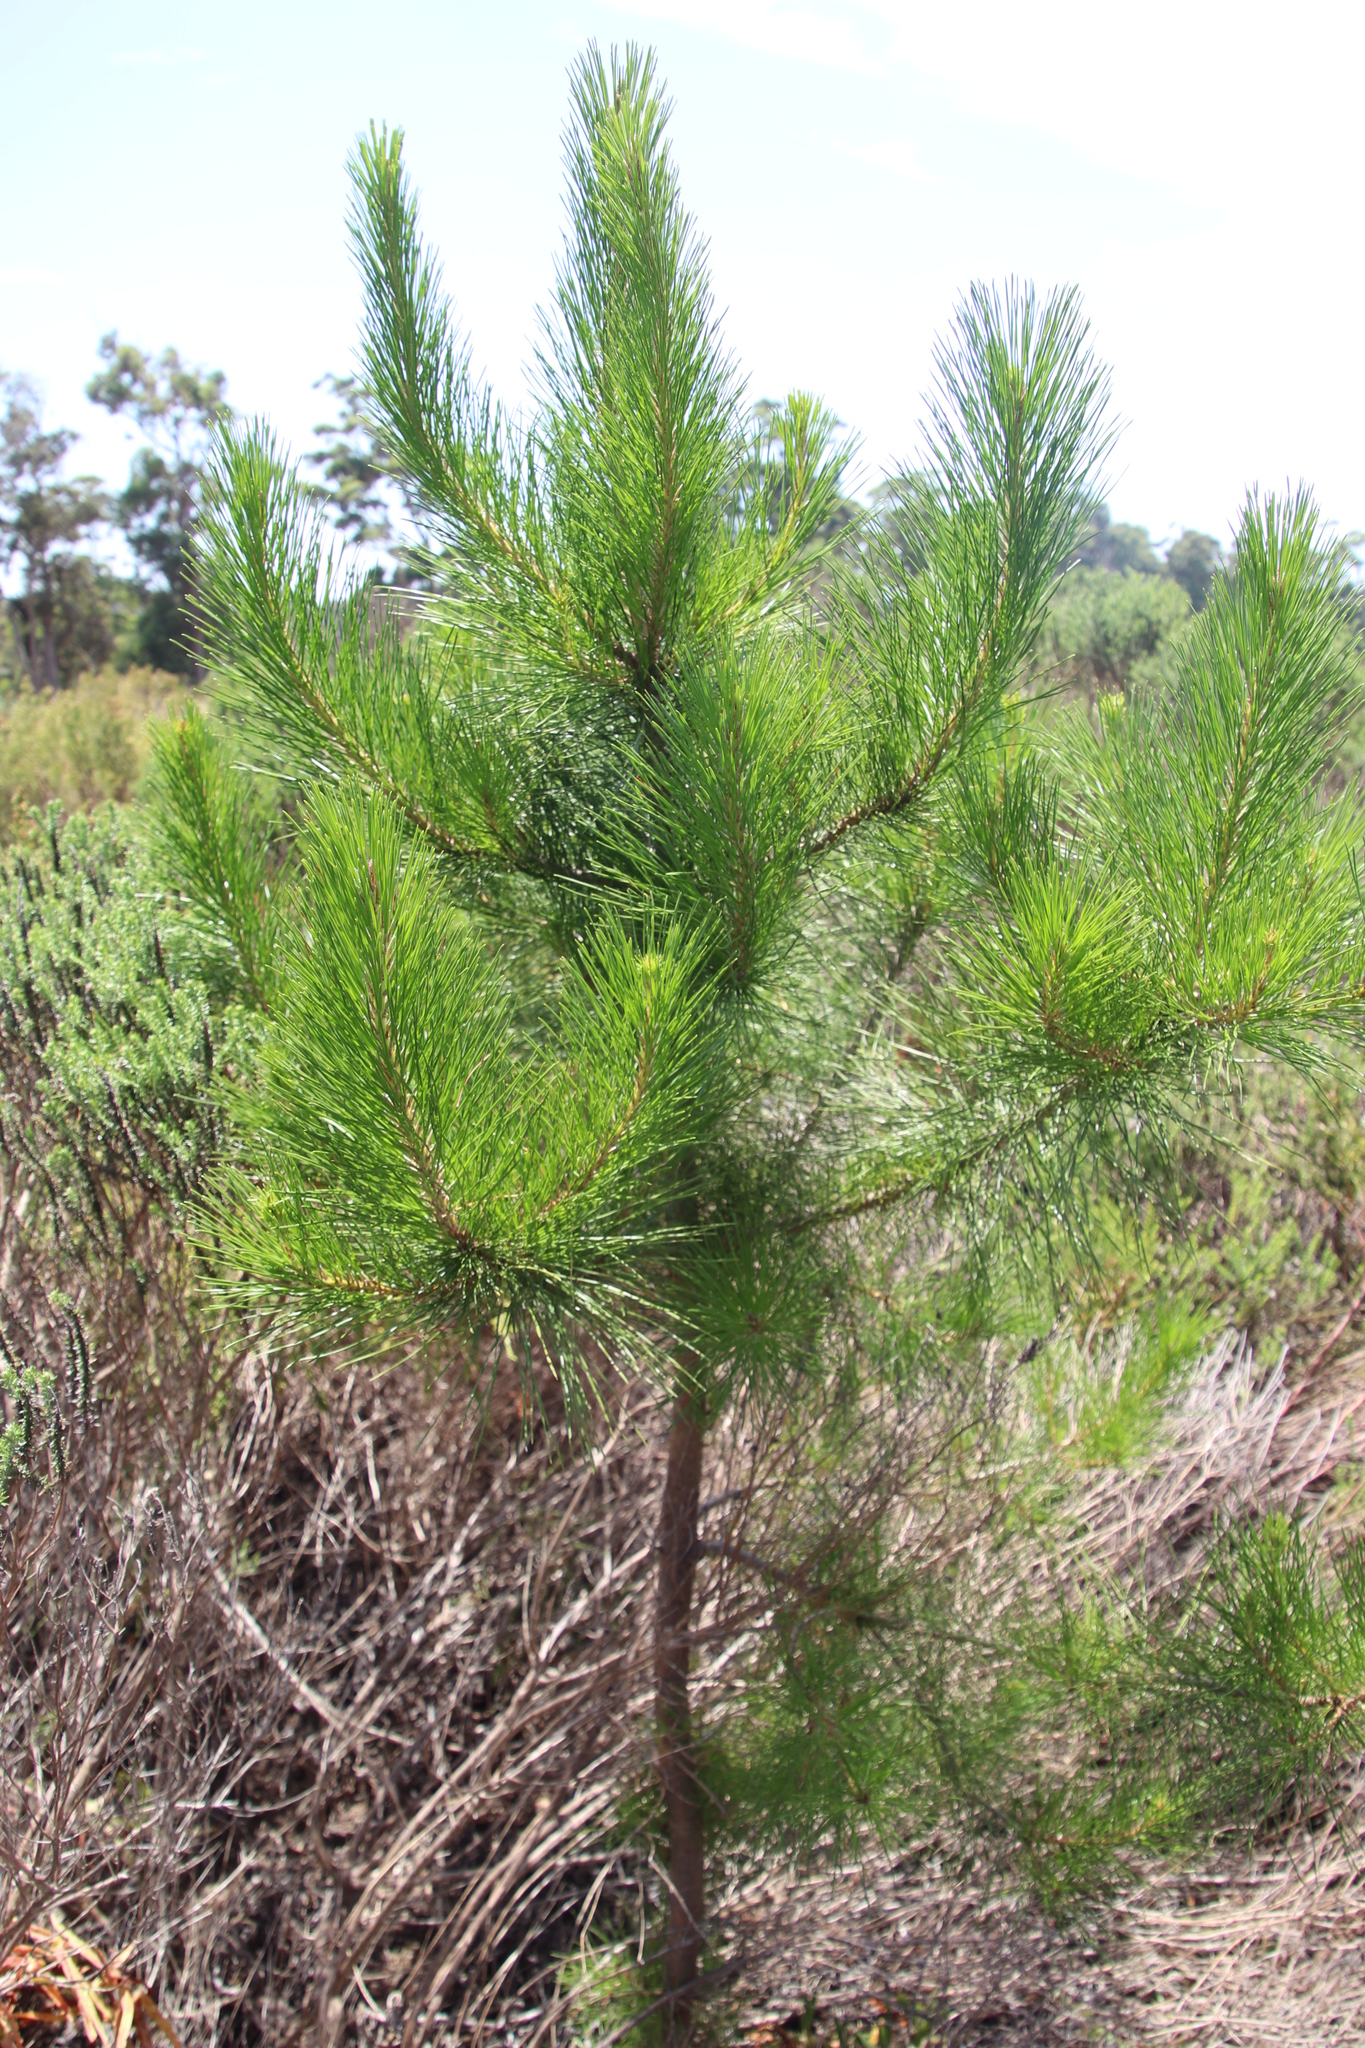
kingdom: Plantae
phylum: Tracheophyta
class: Pinopsida
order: Pinales
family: Pinaceae
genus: Pinus
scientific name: Pinus radiata
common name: Monterey pine
